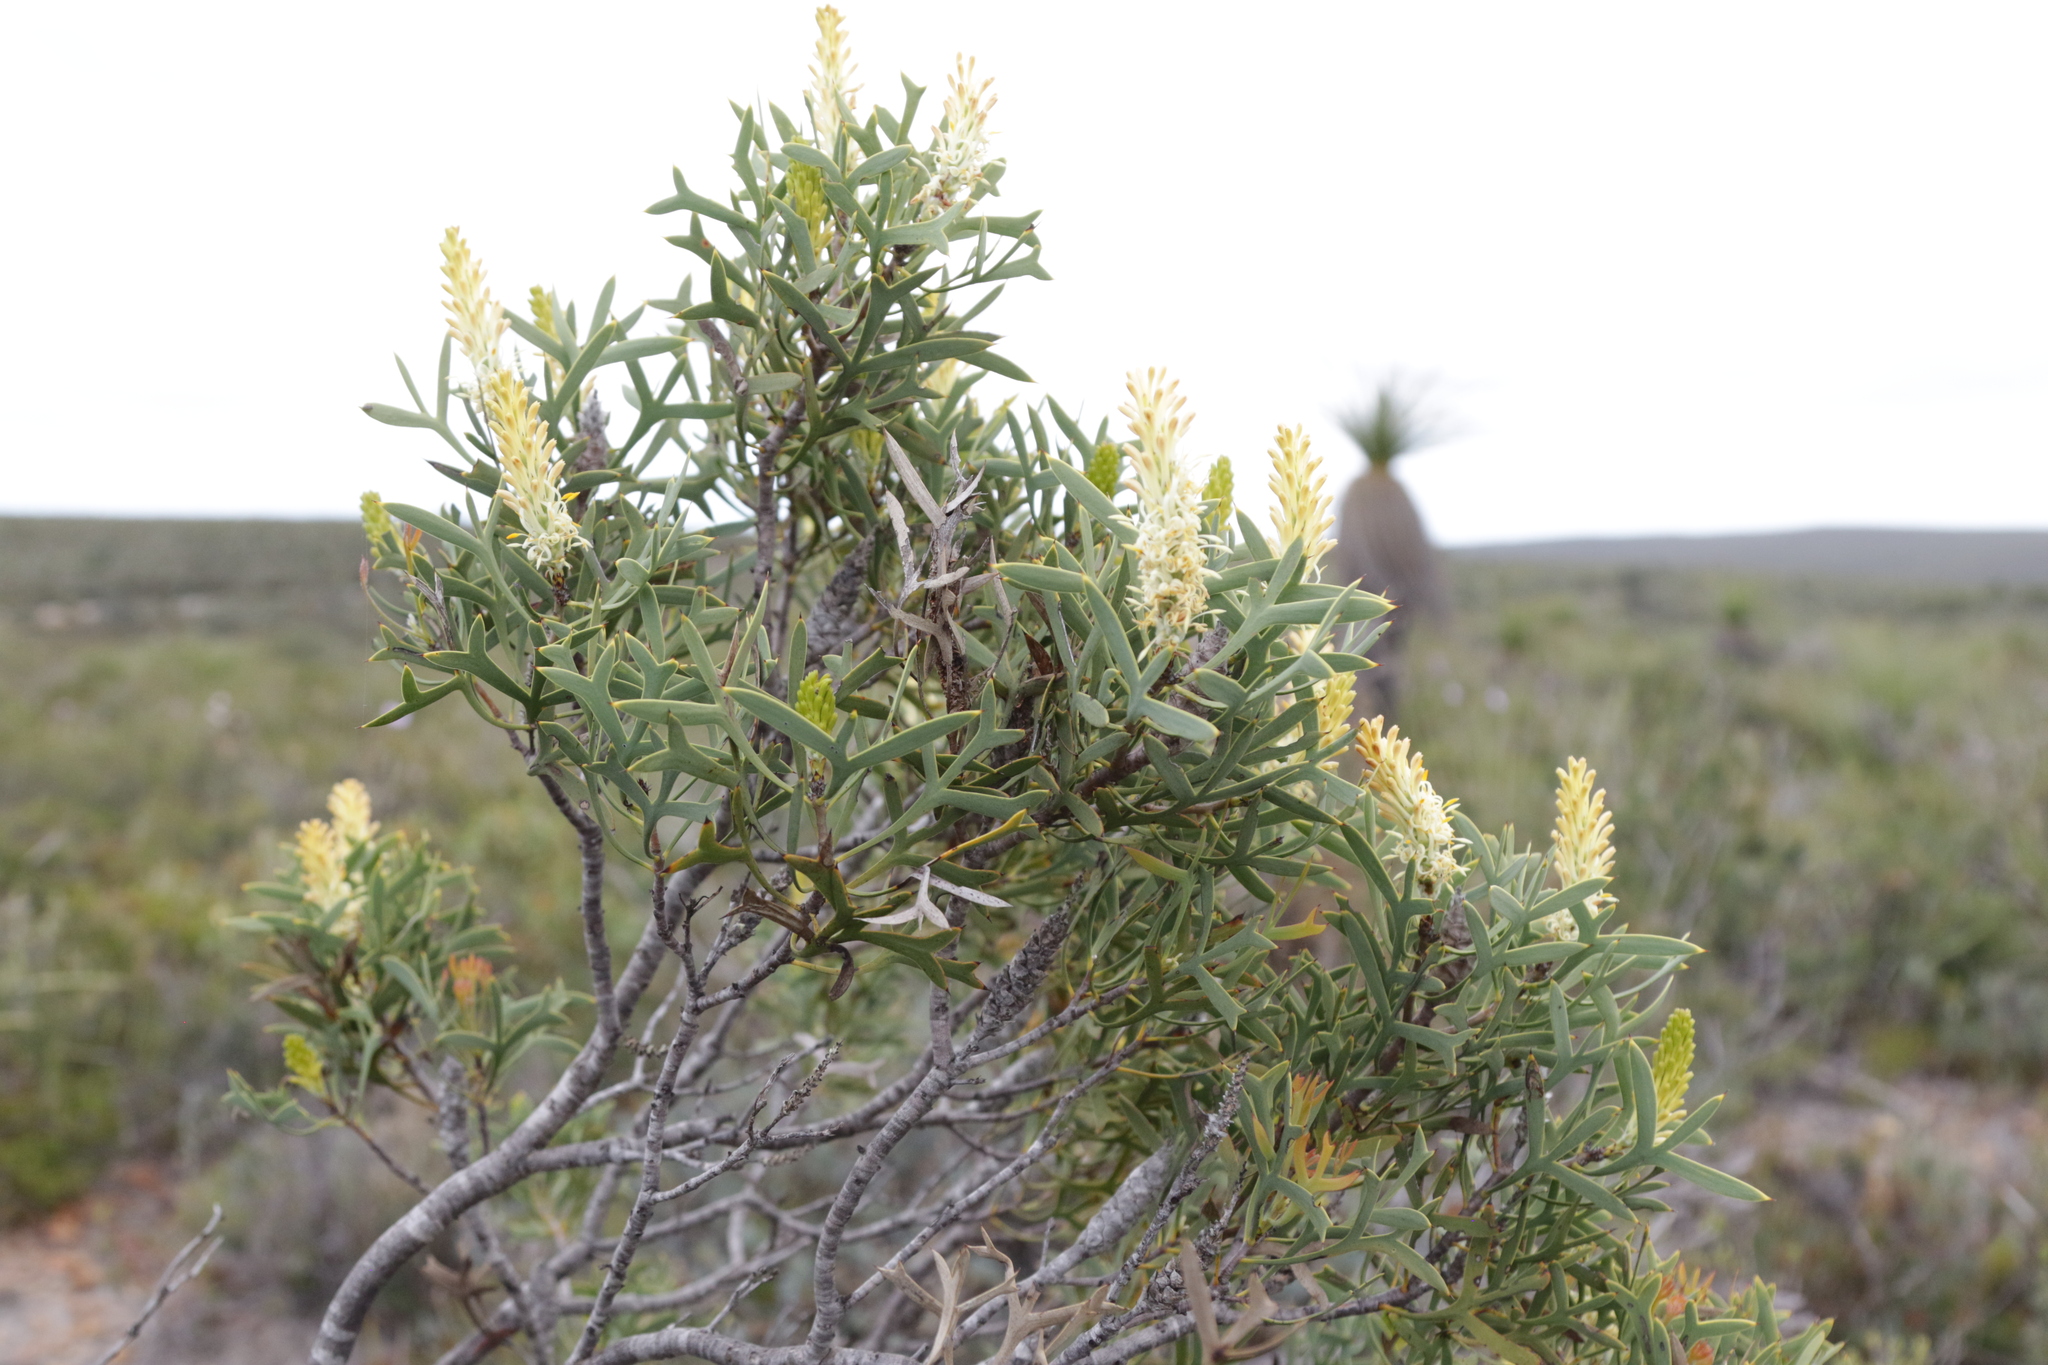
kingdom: Plantae
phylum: Tracheophyta
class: Magnoliopsida
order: Proteales
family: Proteaceae
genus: Petrophile
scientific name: Petrophile shuttleworthiana
